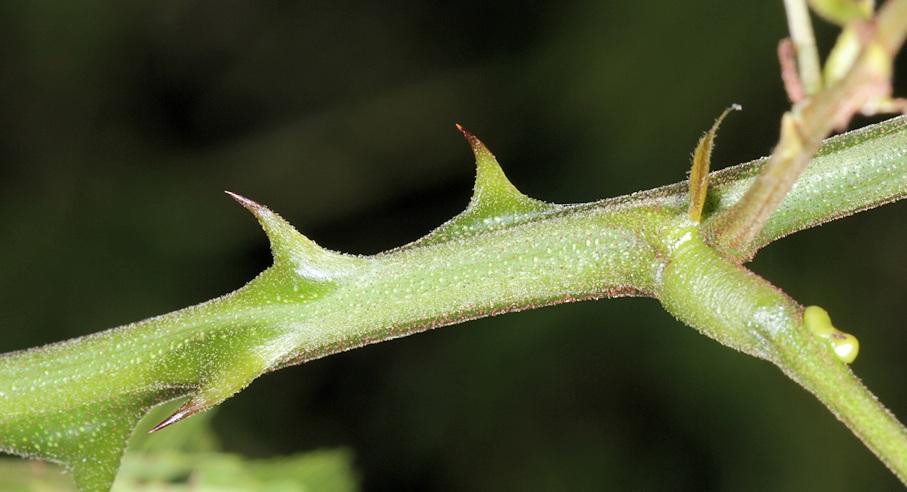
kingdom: Plantae
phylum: Tracheophyta
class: Magnoliopsida
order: Fabales
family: Fabaceae
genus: Senegalia
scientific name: Senegalia schweinfurthii
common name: River climbing acacia
